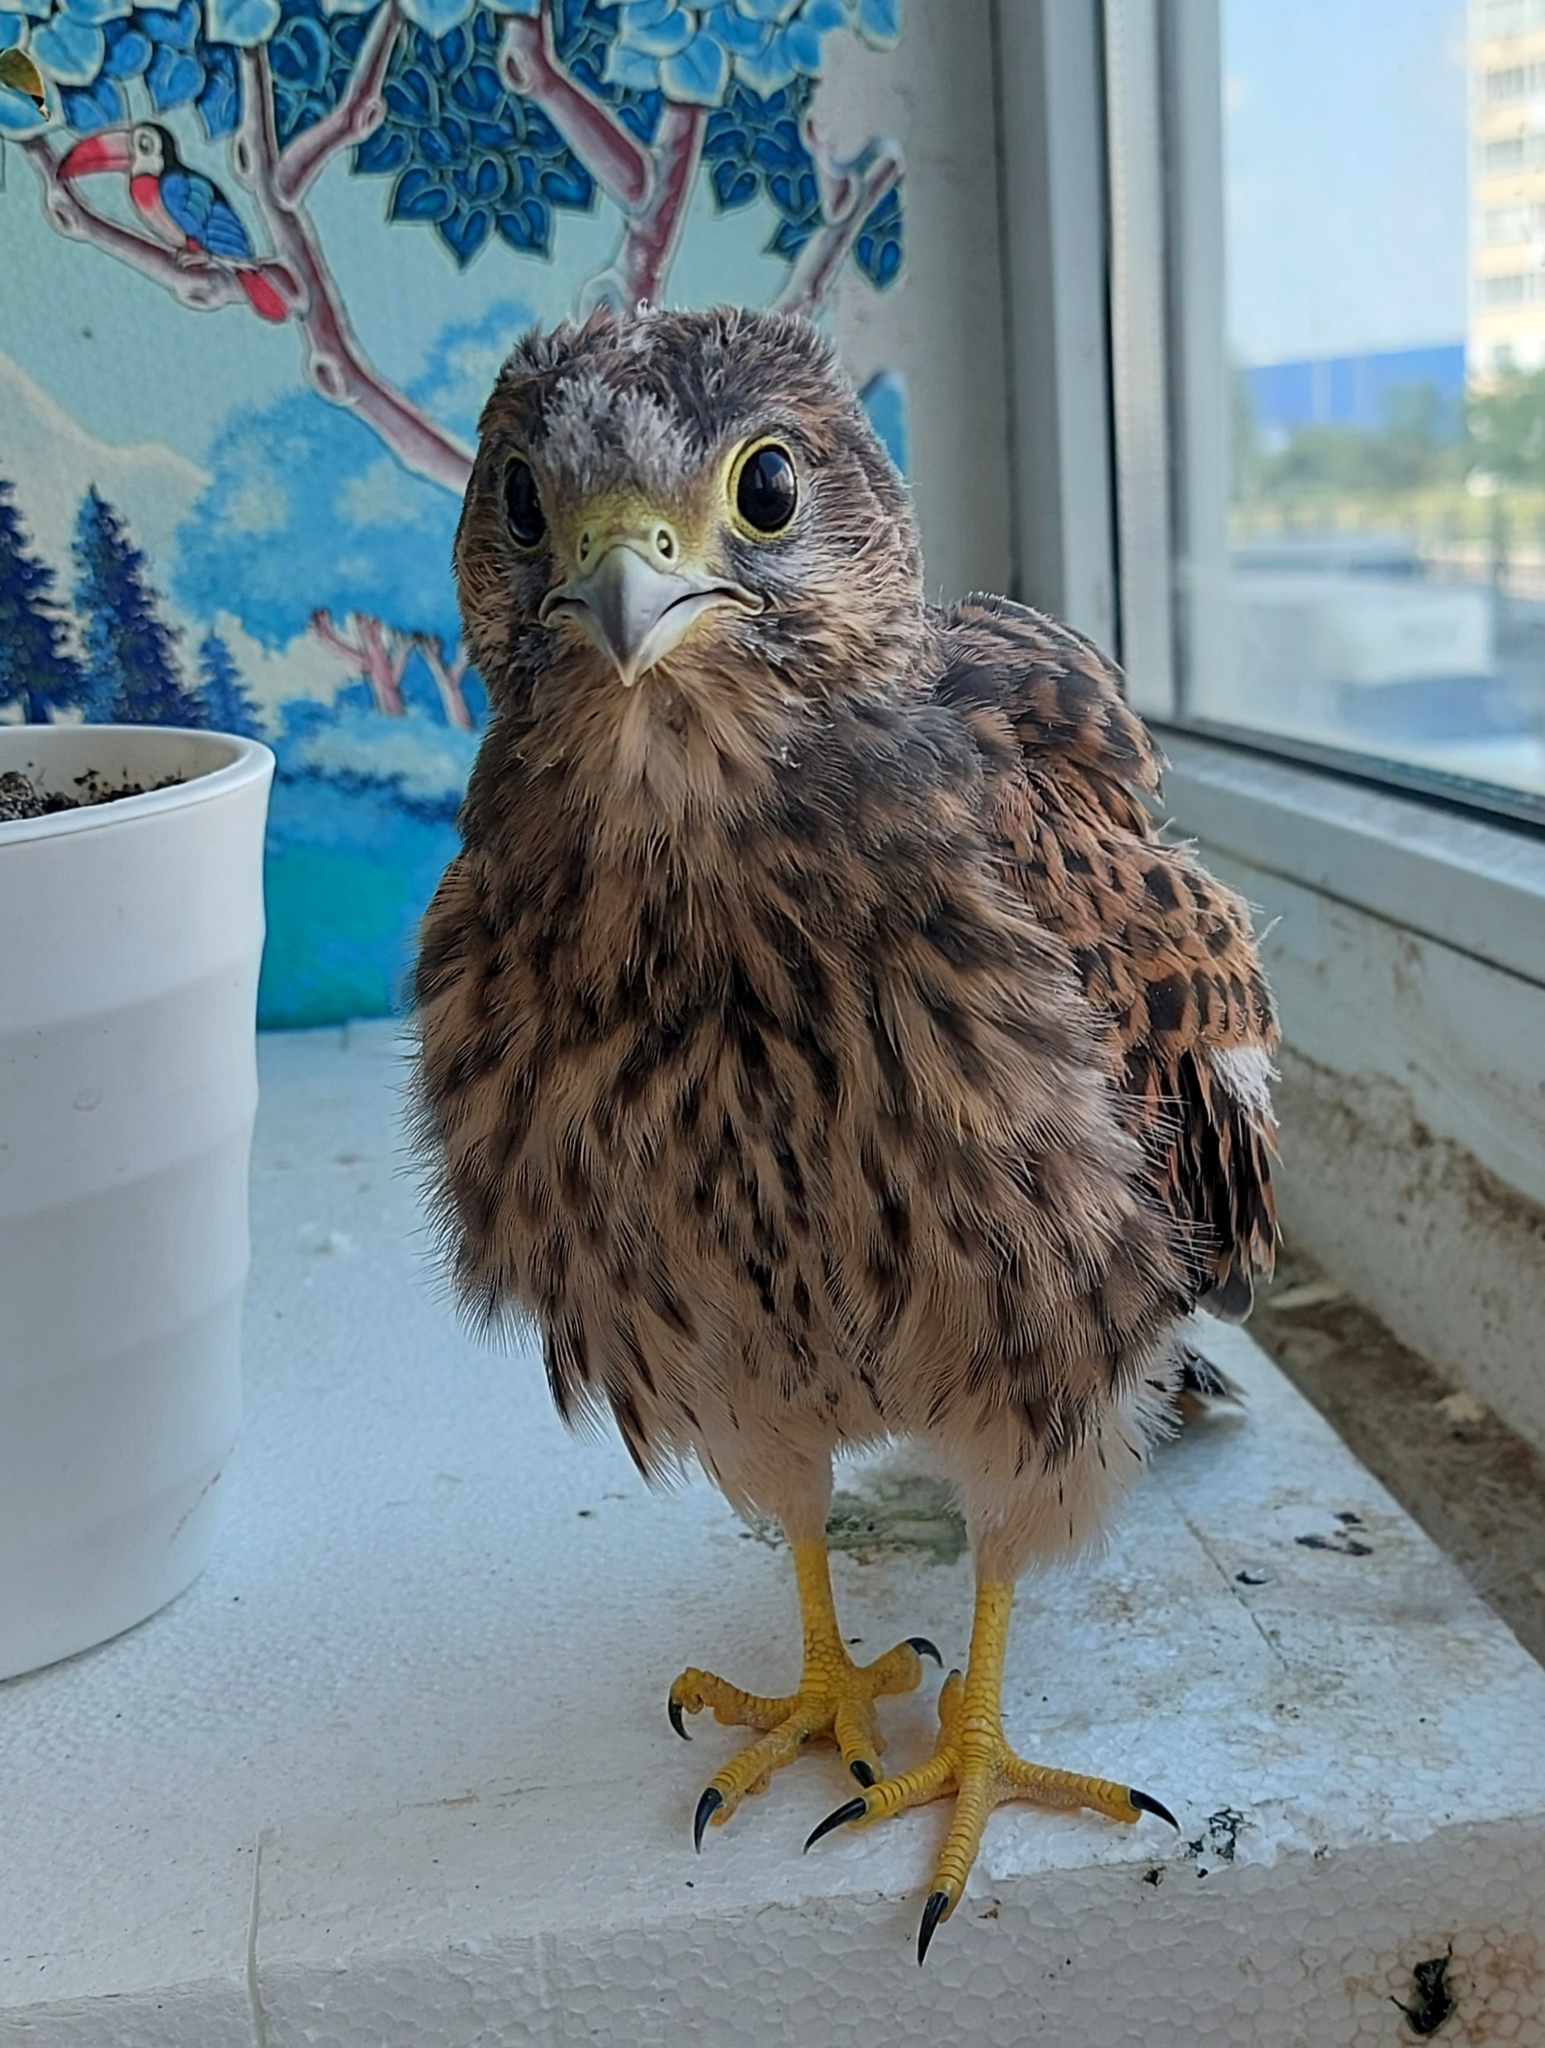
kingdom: Animalia
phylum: Chordata
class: Aves
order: Falconiformes
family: Falconidae
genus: Falco
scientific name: Falco tinnunculus
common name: Common kestrel
